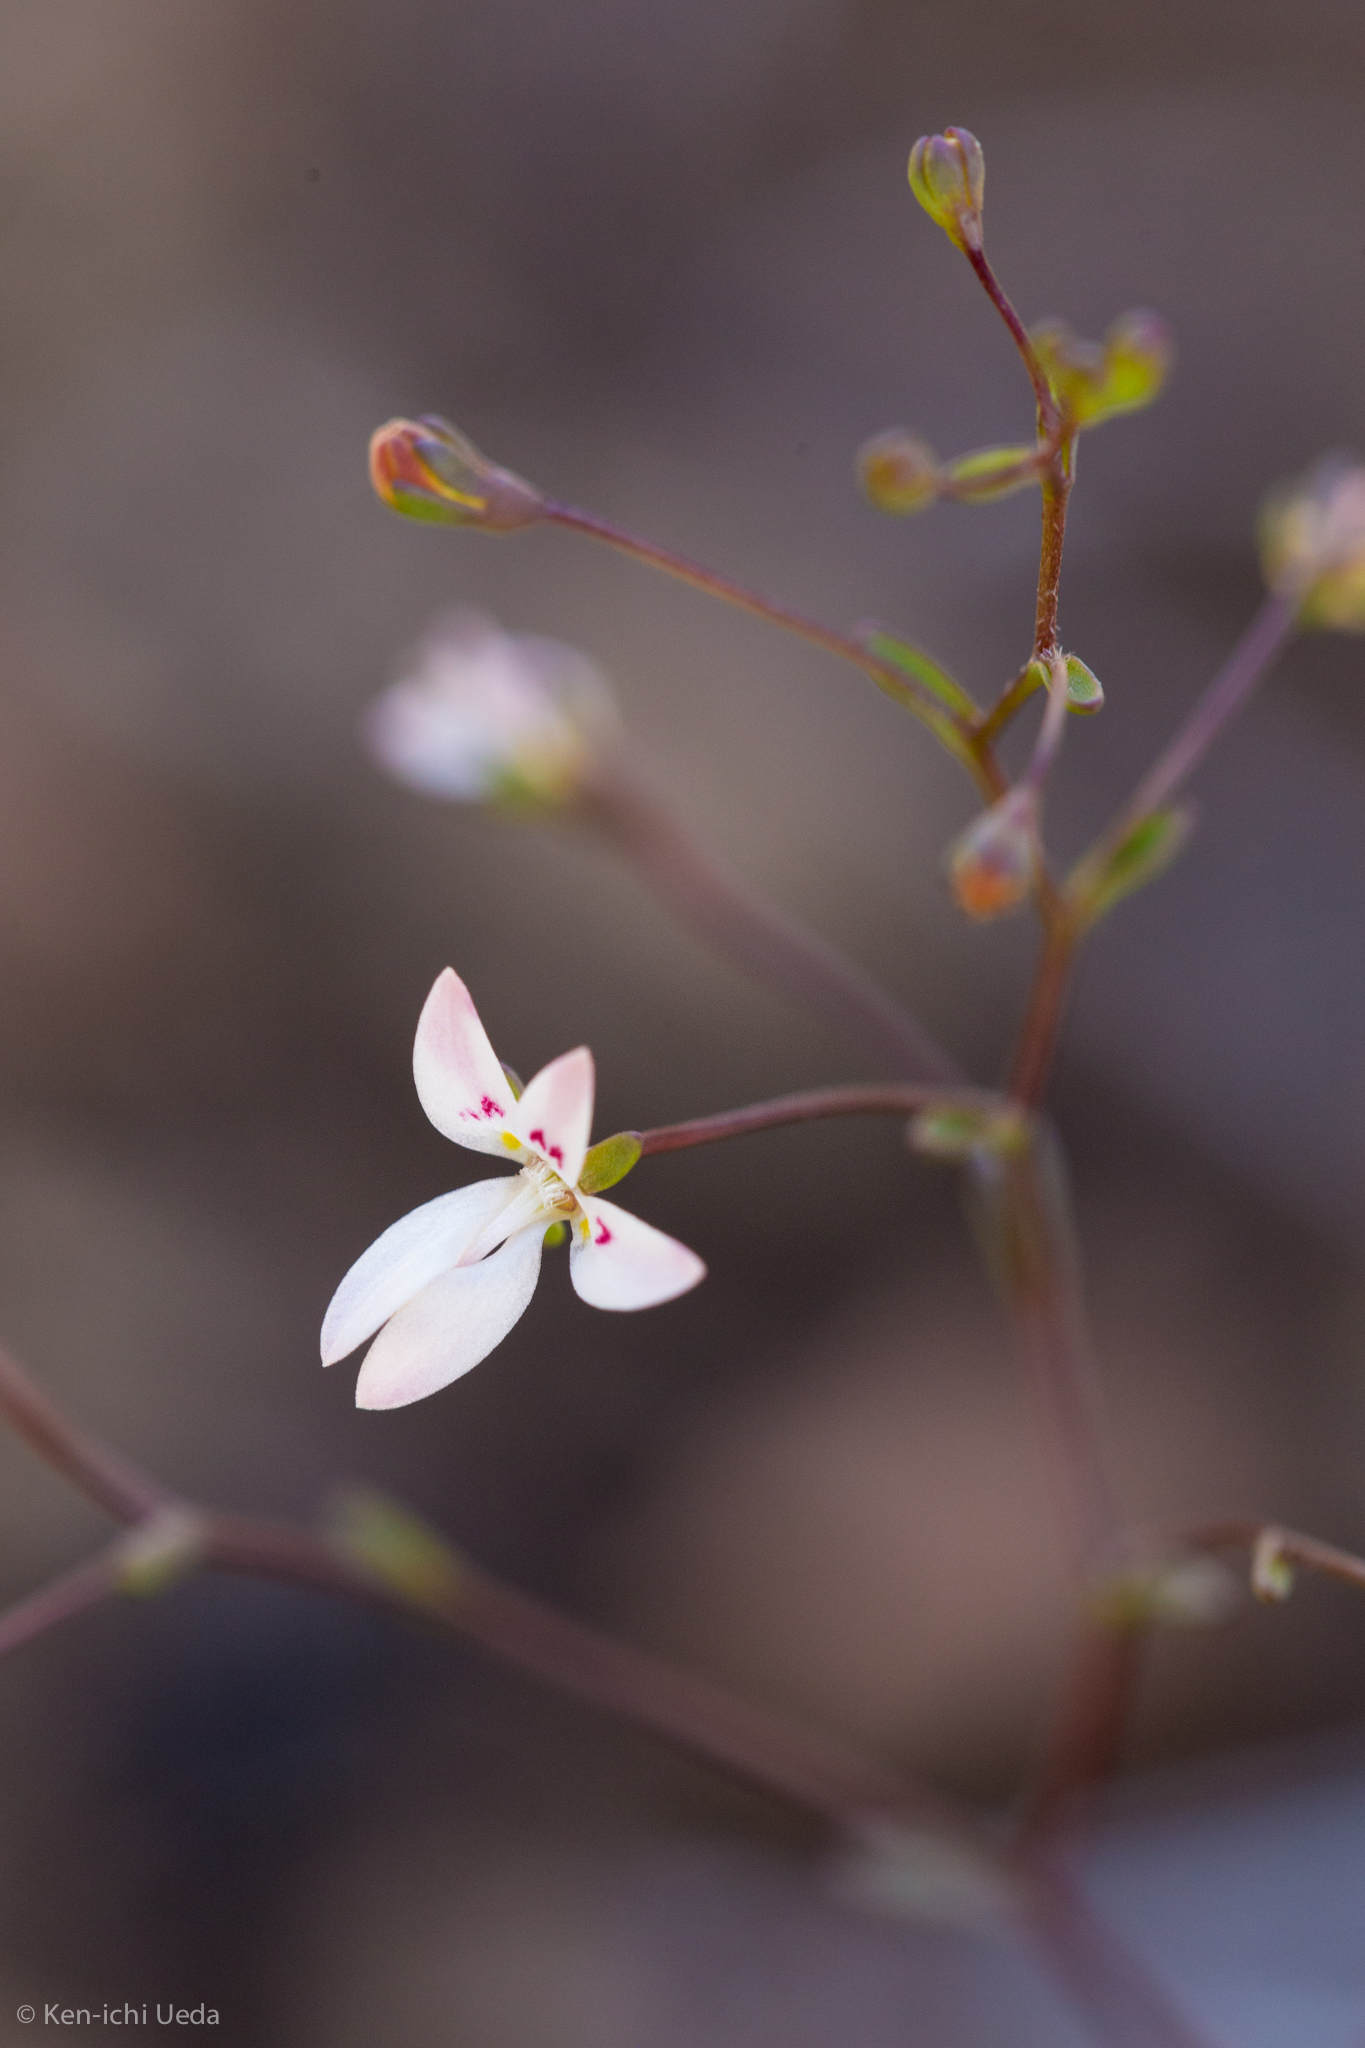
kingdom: Plantae
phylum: Tracheophyta
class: Magnoliopsida
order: Asterales
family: Campanulaceae
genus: Nemacladus
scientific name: Nemacladus montanus
